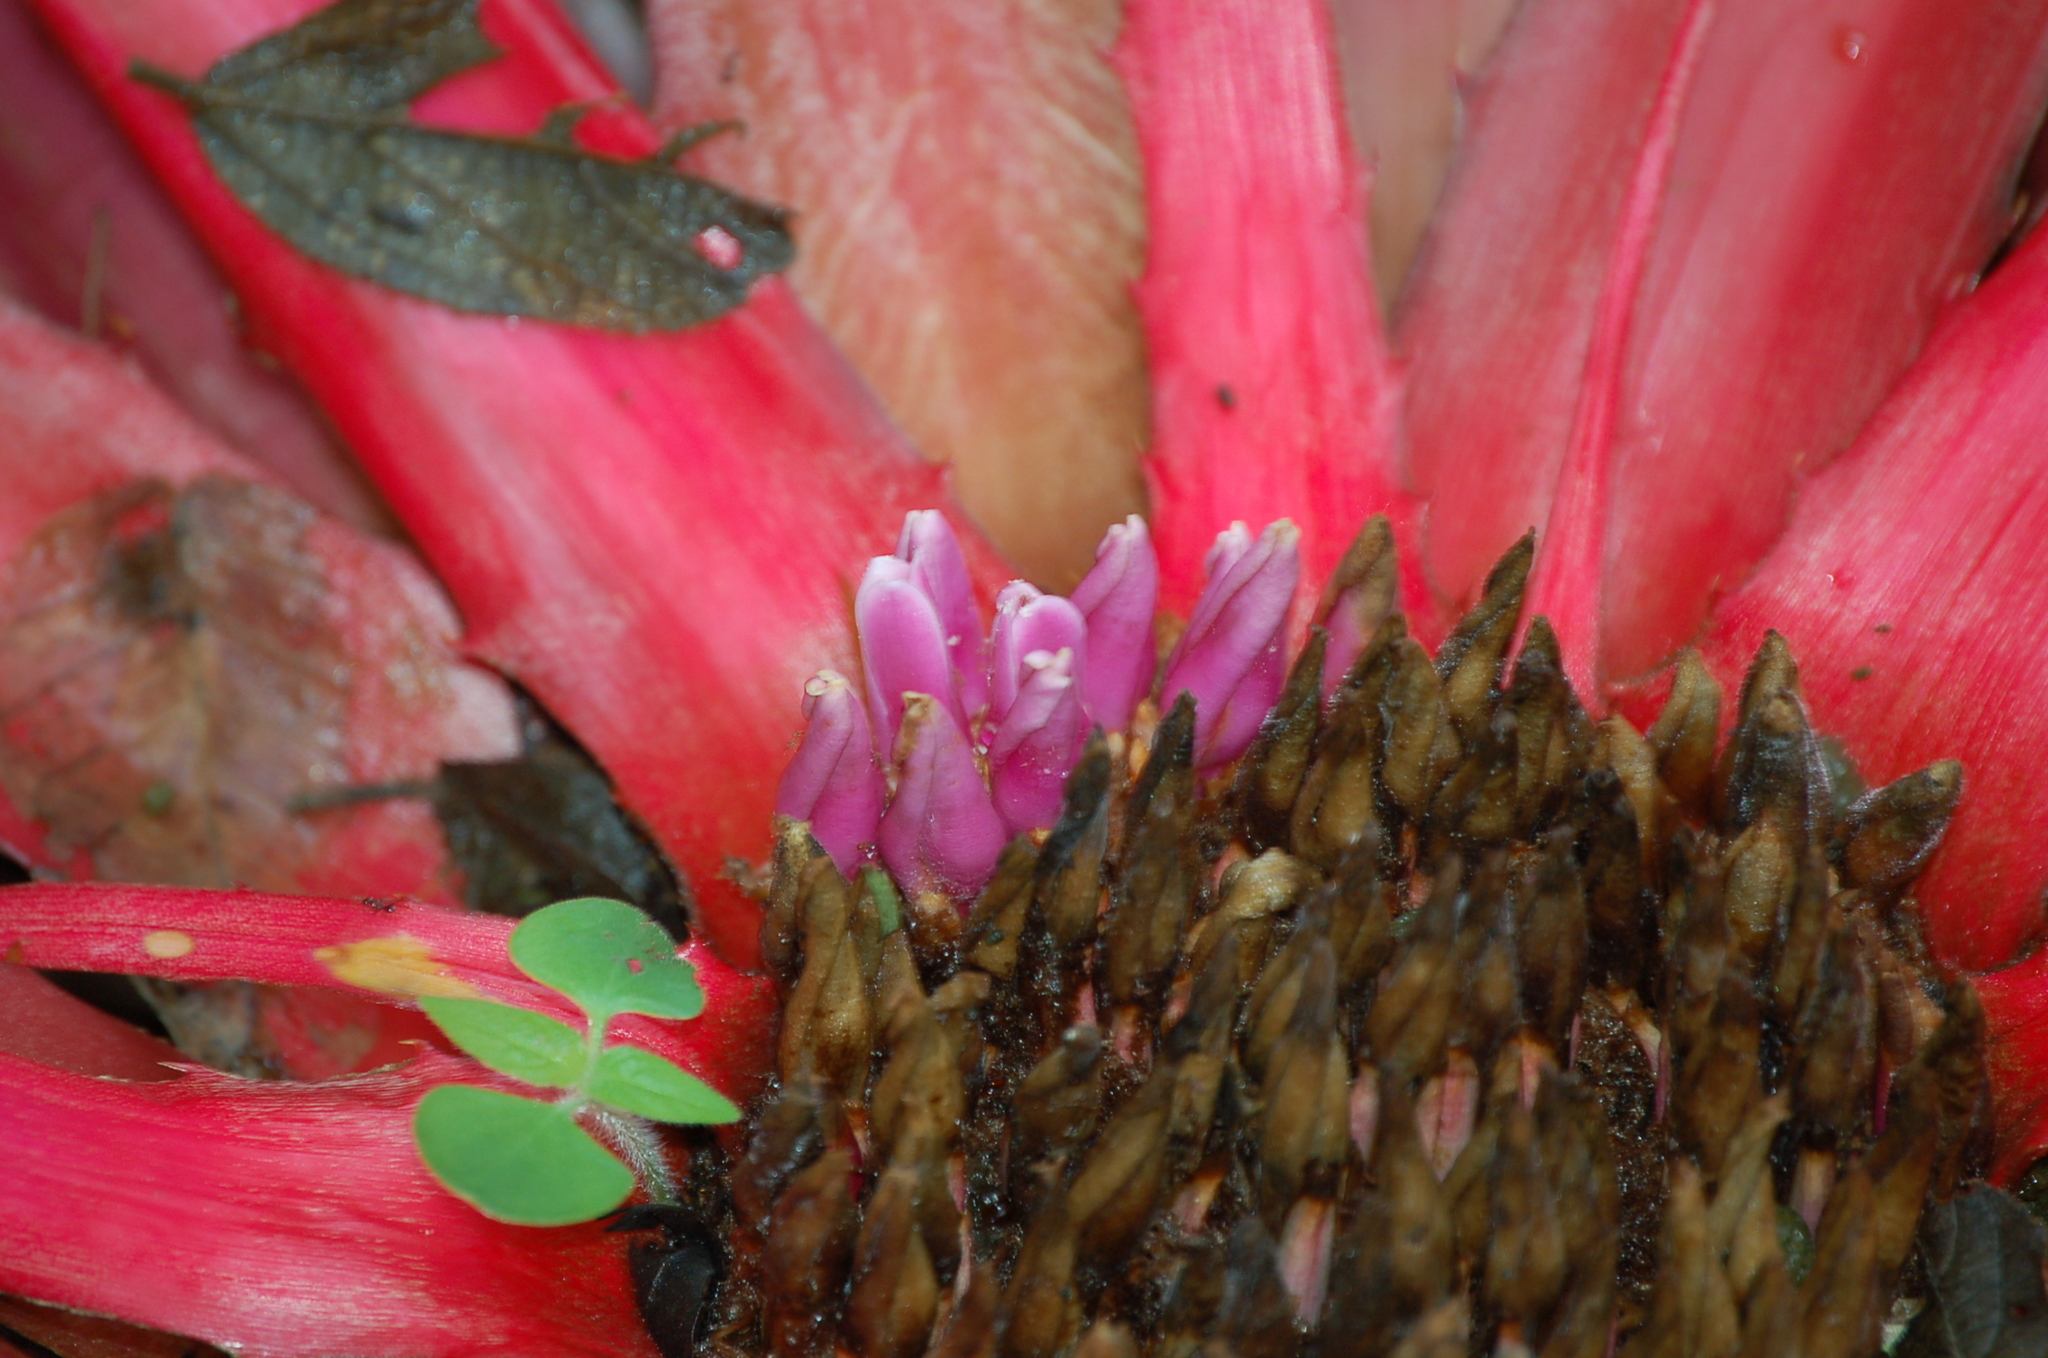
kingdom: Plantae
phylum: Tracheophyta
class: Liliopsida
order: Poales
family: Bromeliaceae
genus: Bromelia
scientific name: Bromelia karatas
